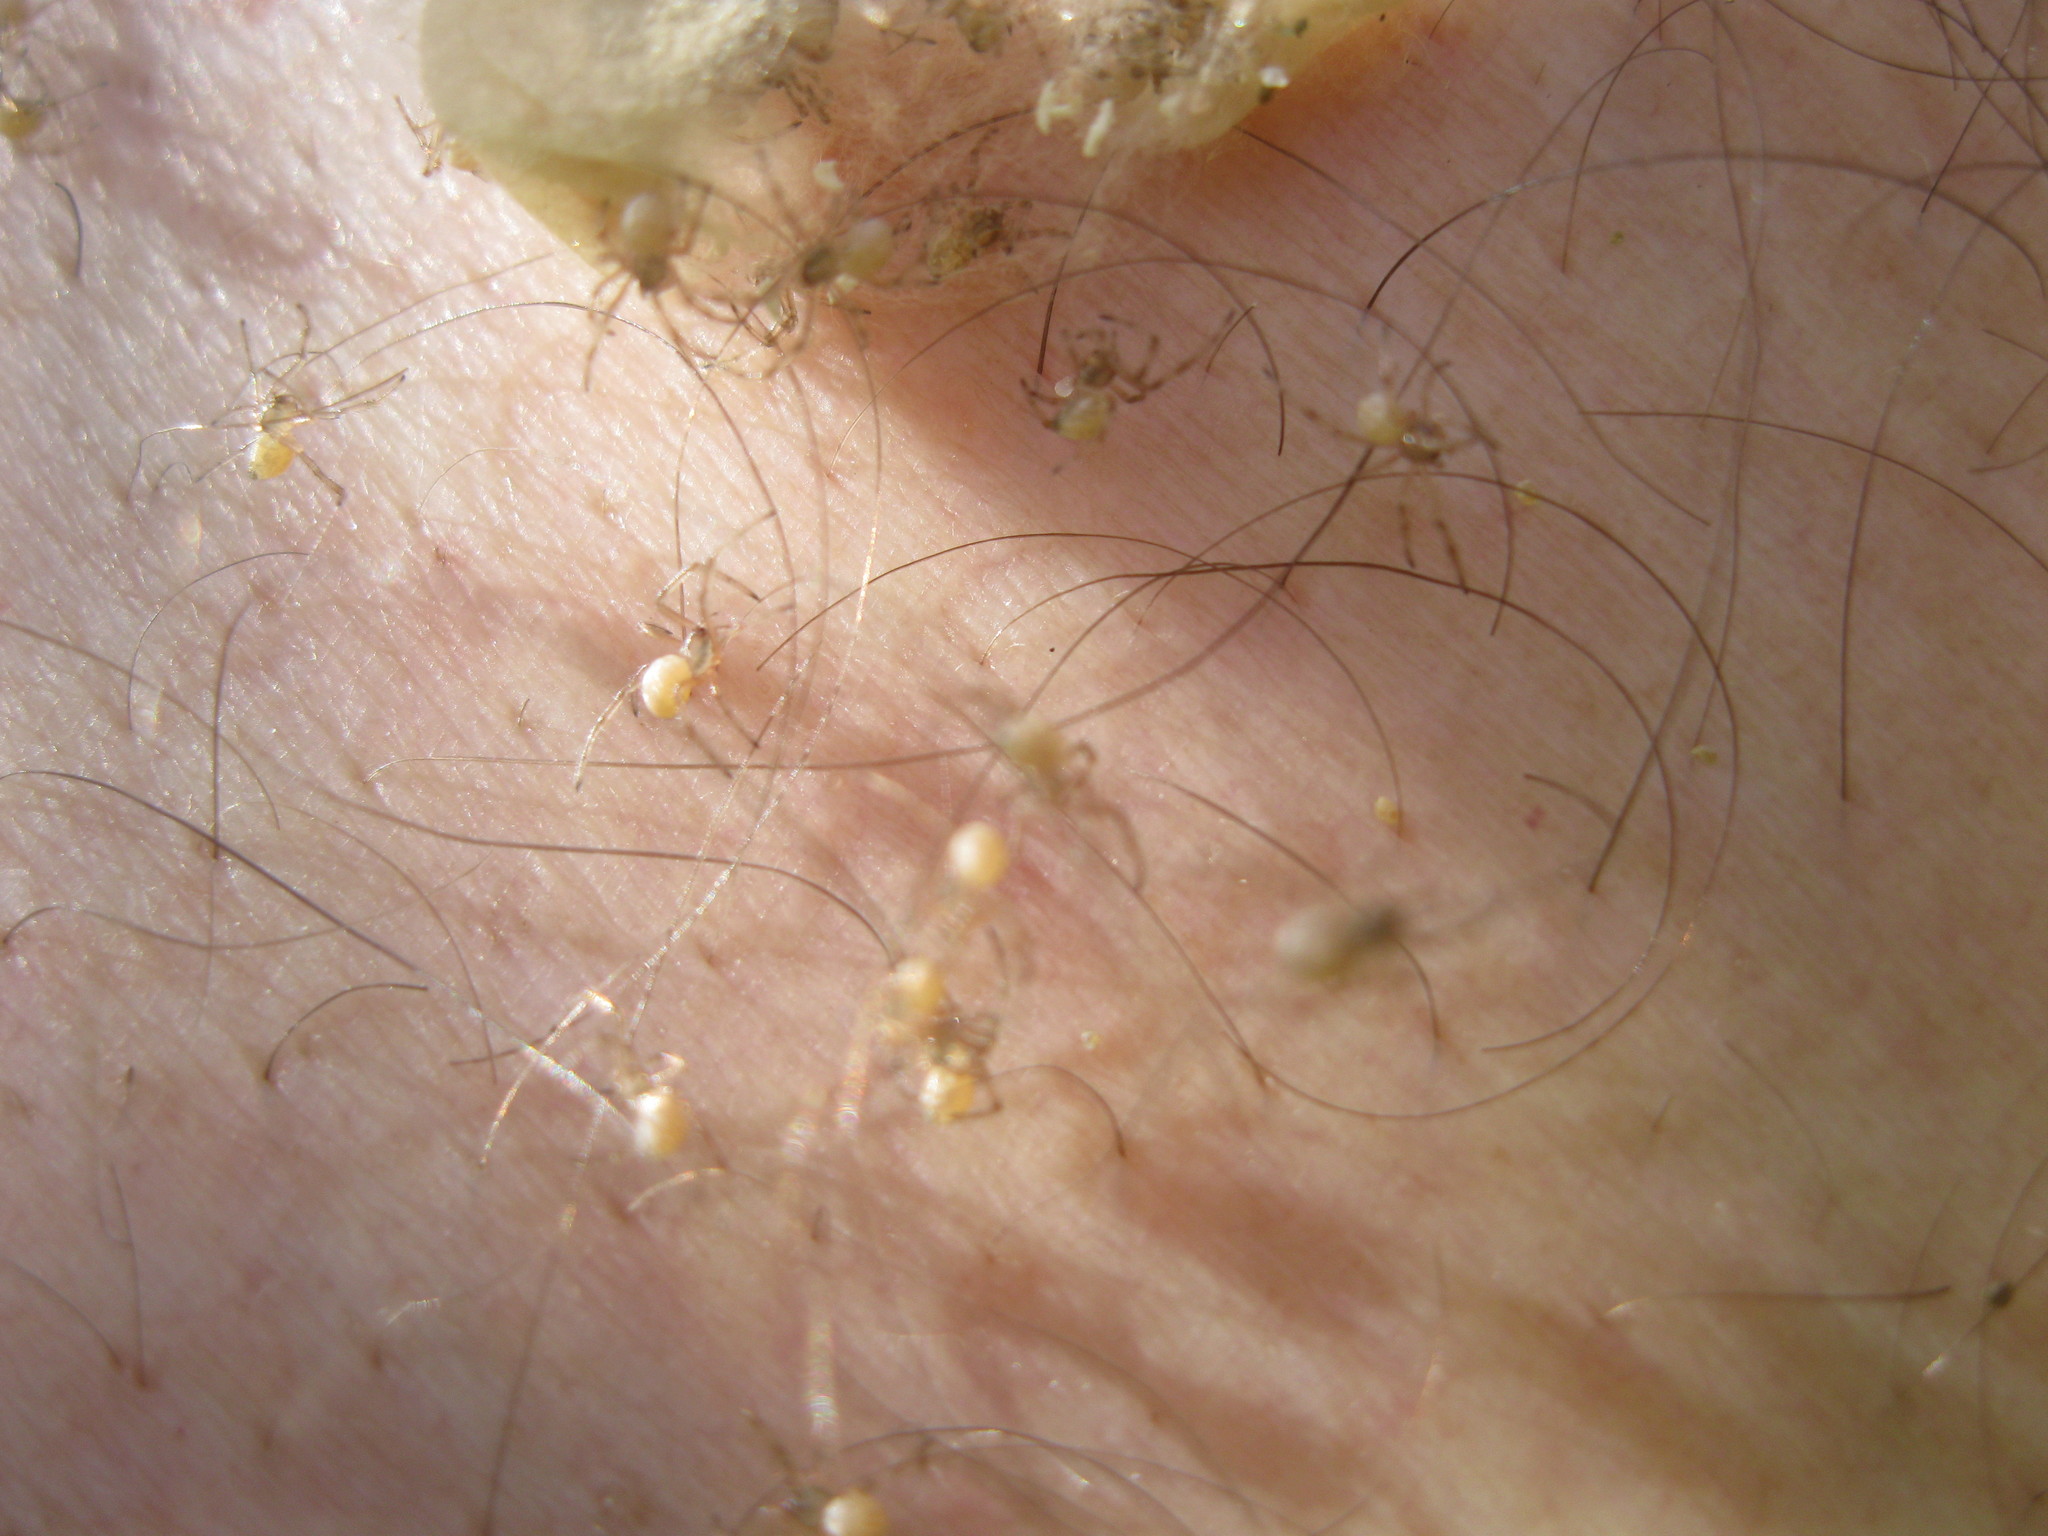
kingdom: Animalia
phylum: Arthropoda
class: Arachnida
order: Araneae
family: Theridiidae
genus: Latrodectus
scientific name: Latrodectus katipo
